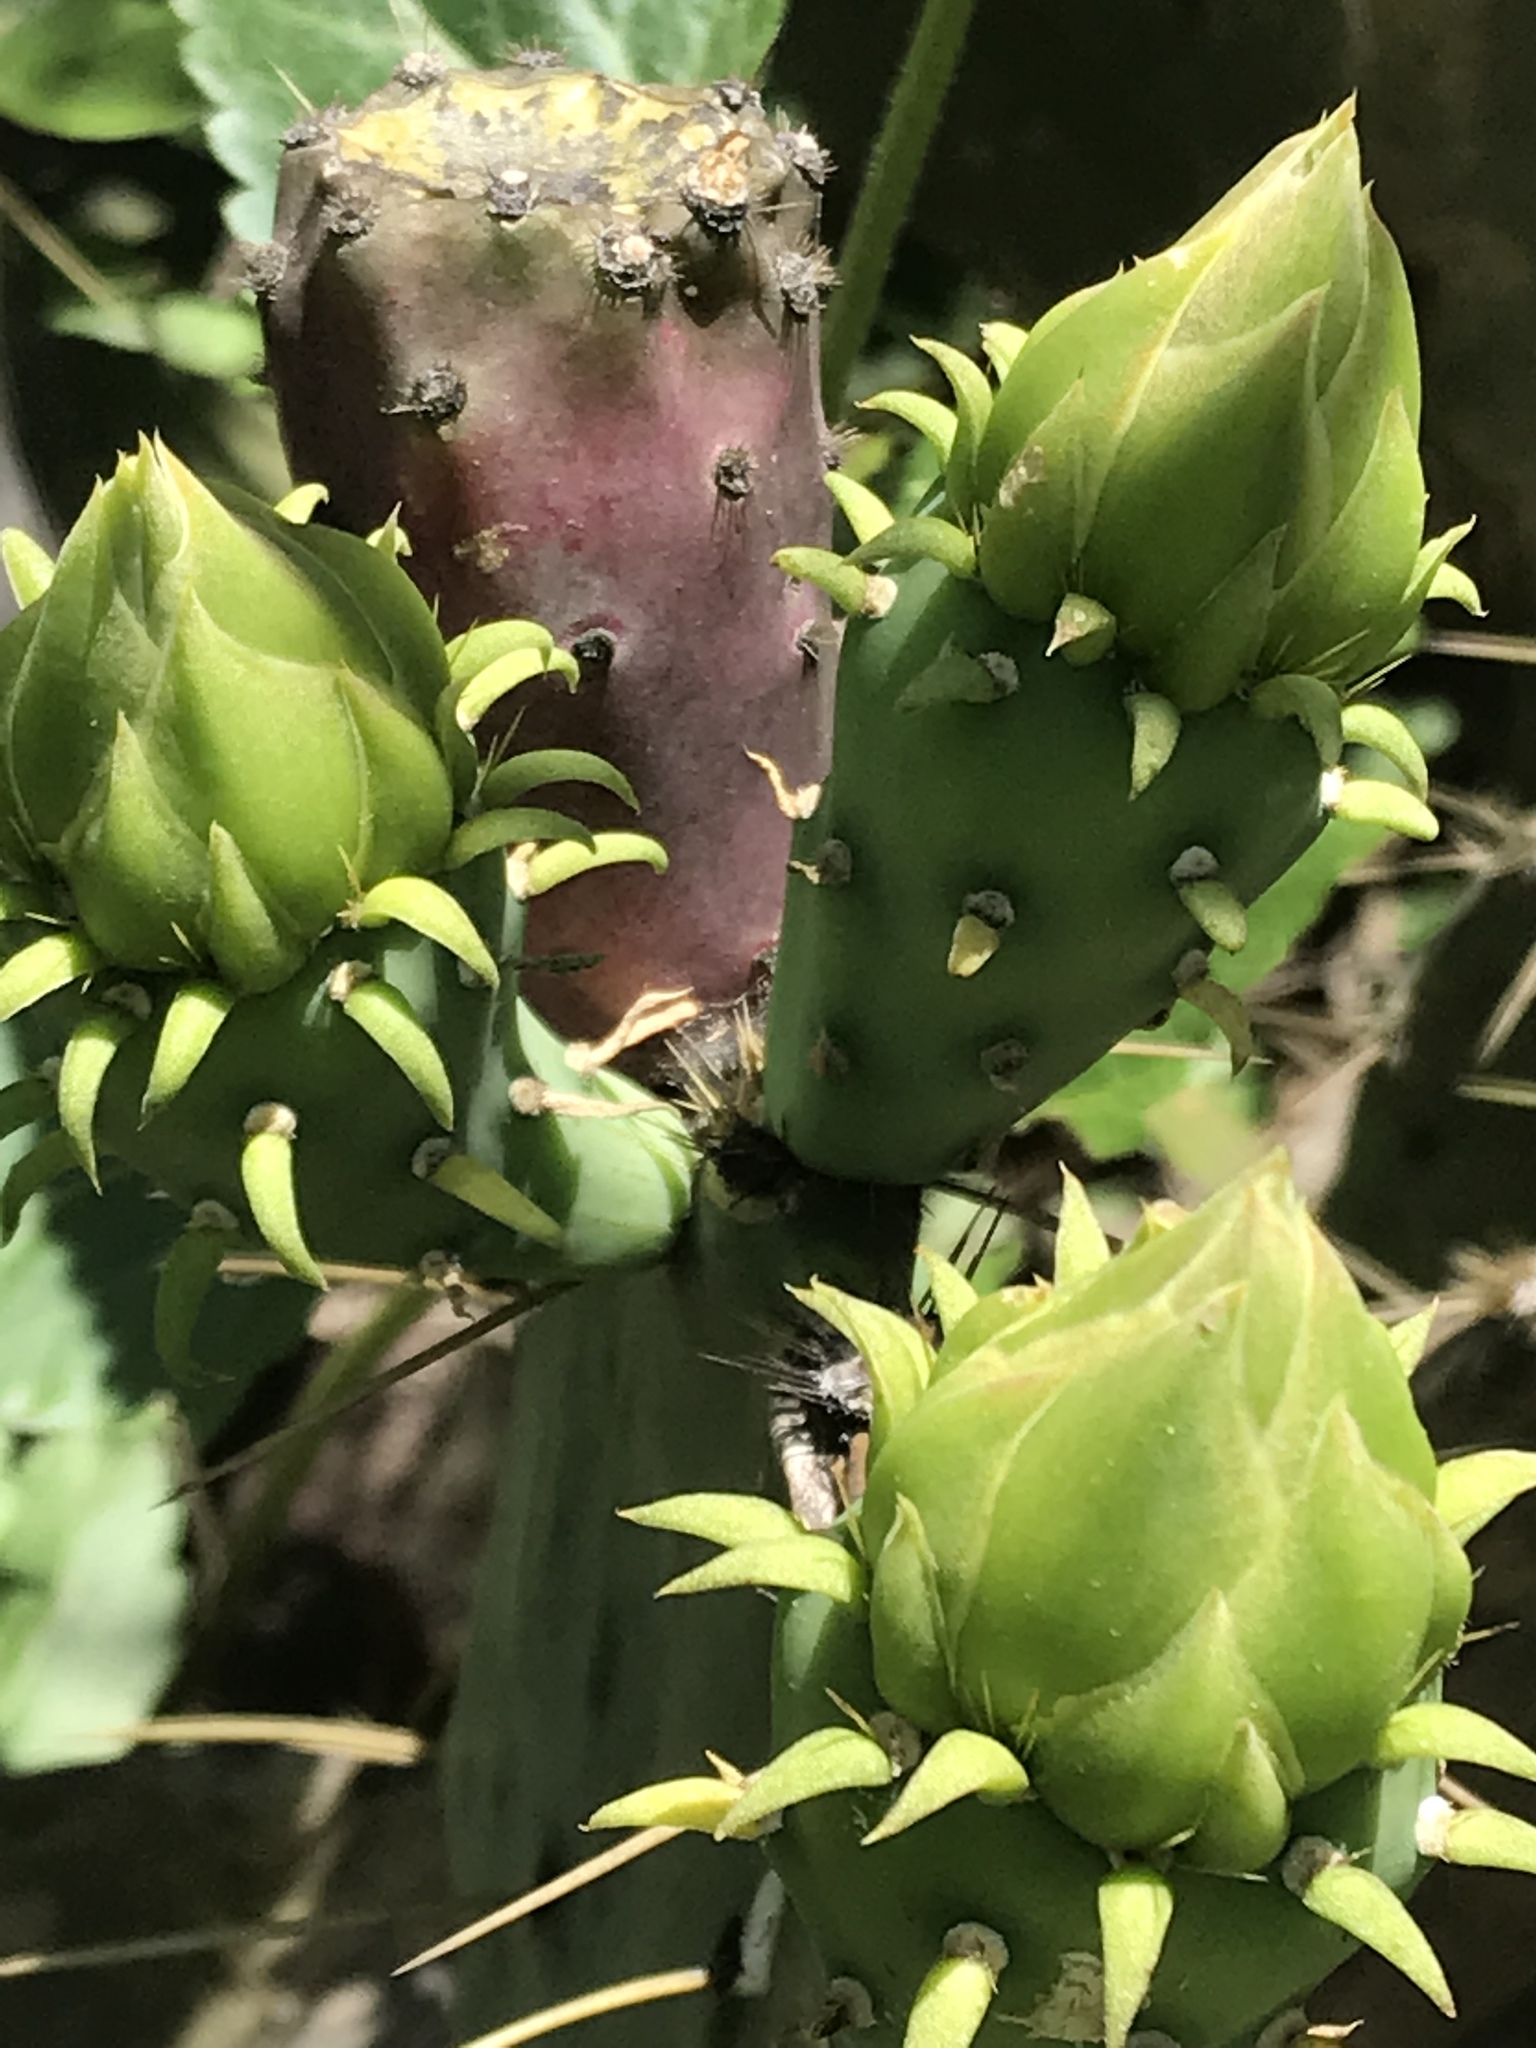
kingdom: Plantae
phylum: Tracheophyta
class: Magnoliopsida
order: Caryophyllales
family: Cactaceae
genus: Opuntia
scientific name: Opuntia engelmannii
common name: Cactus-apple
